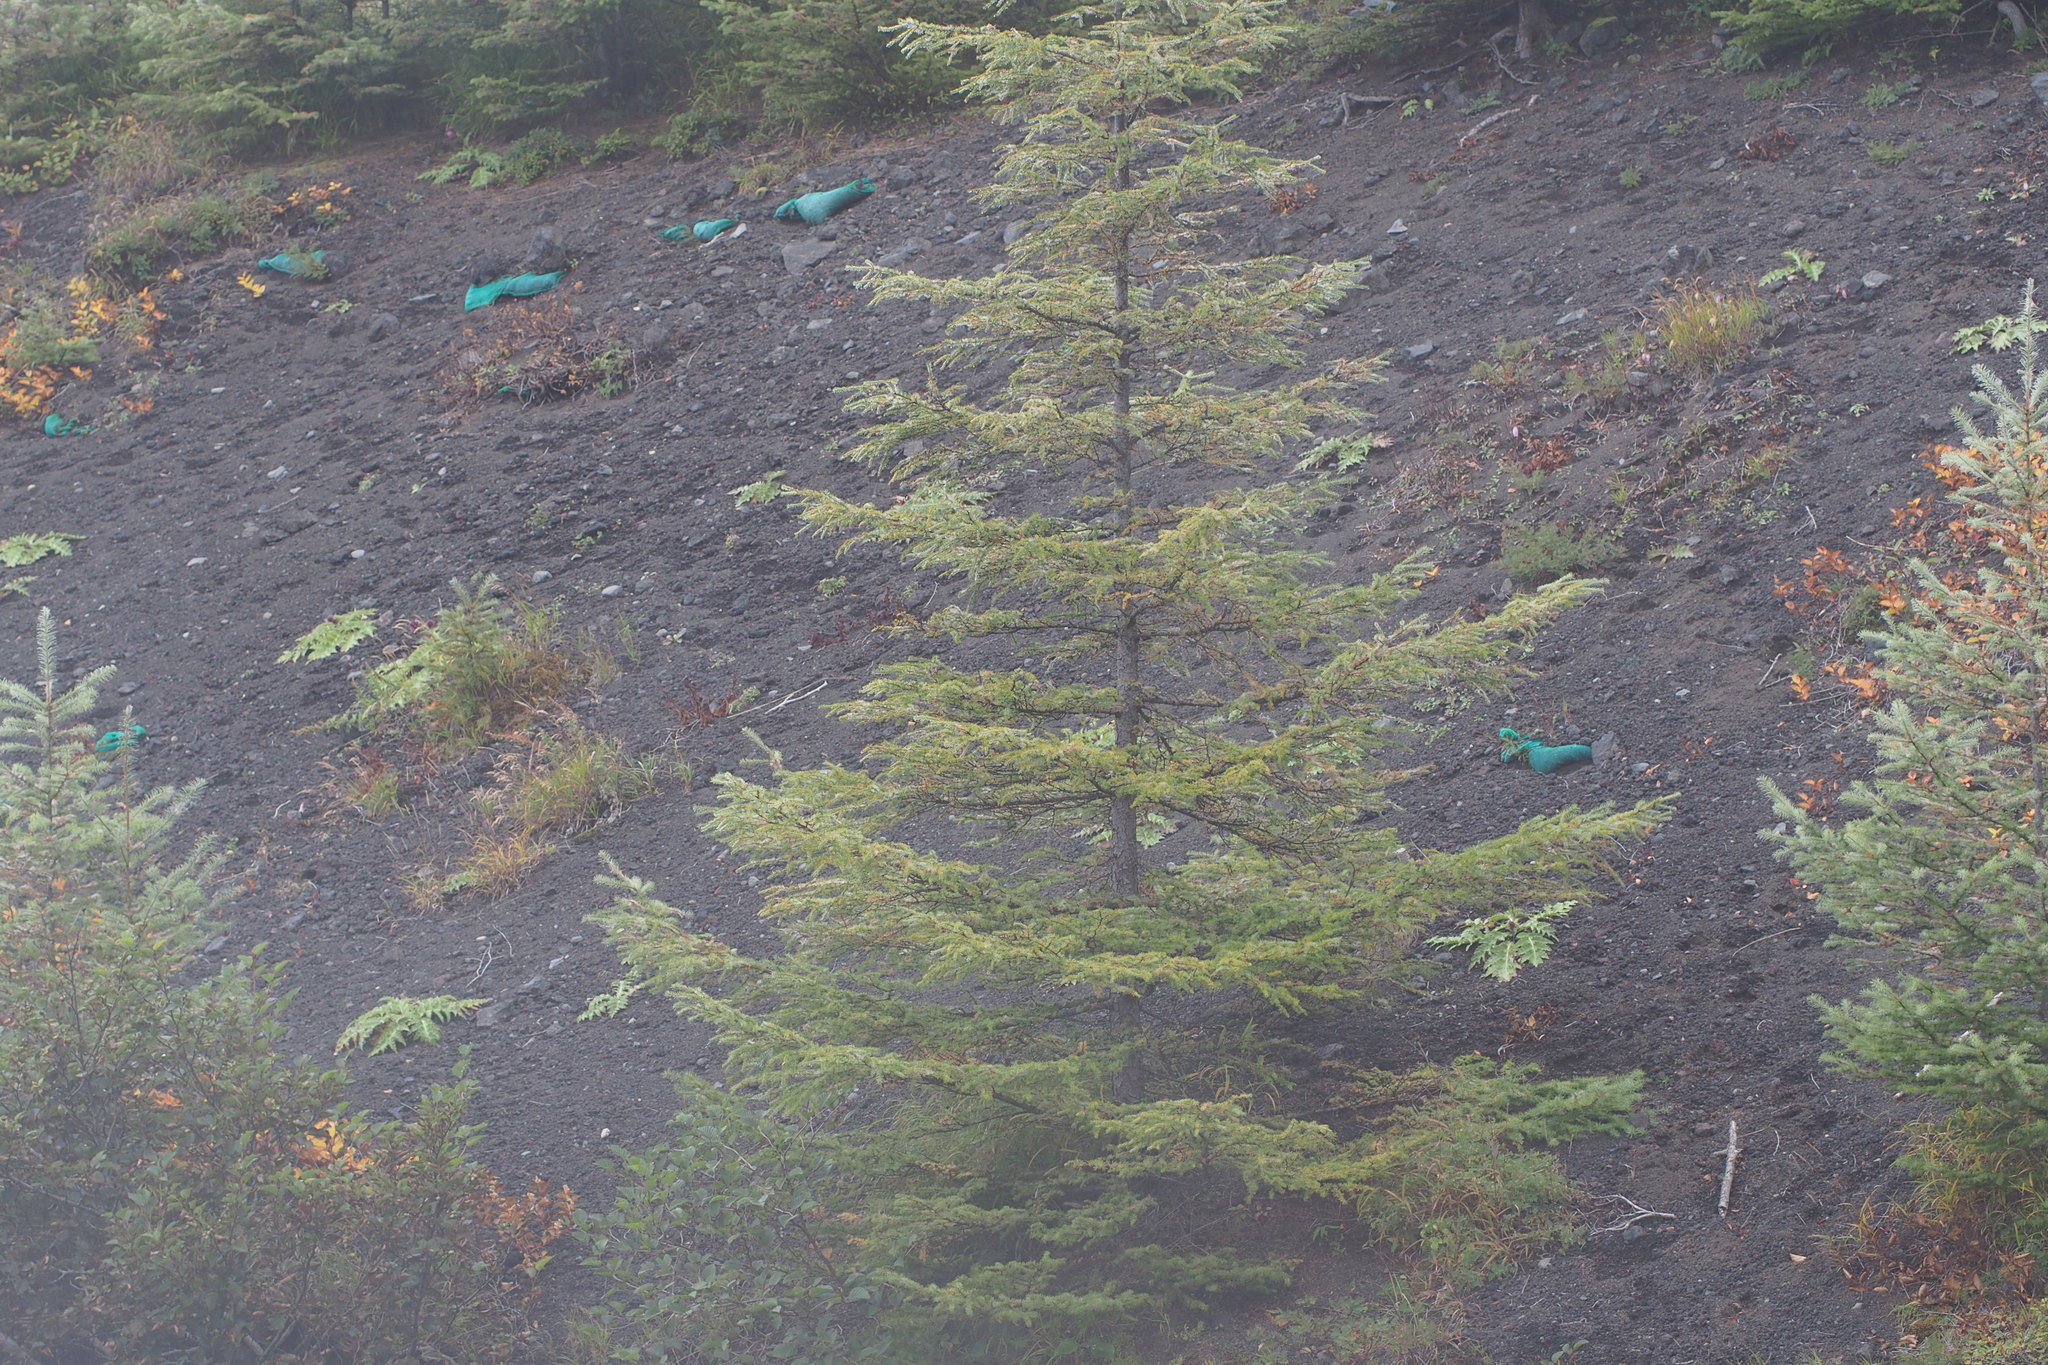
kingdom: Plantae
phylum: Tracheophyta
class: Pinopsida
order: Pinales
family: Pinaceae
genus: Larix
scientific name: Larix kaempferi
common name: Japanese larch
